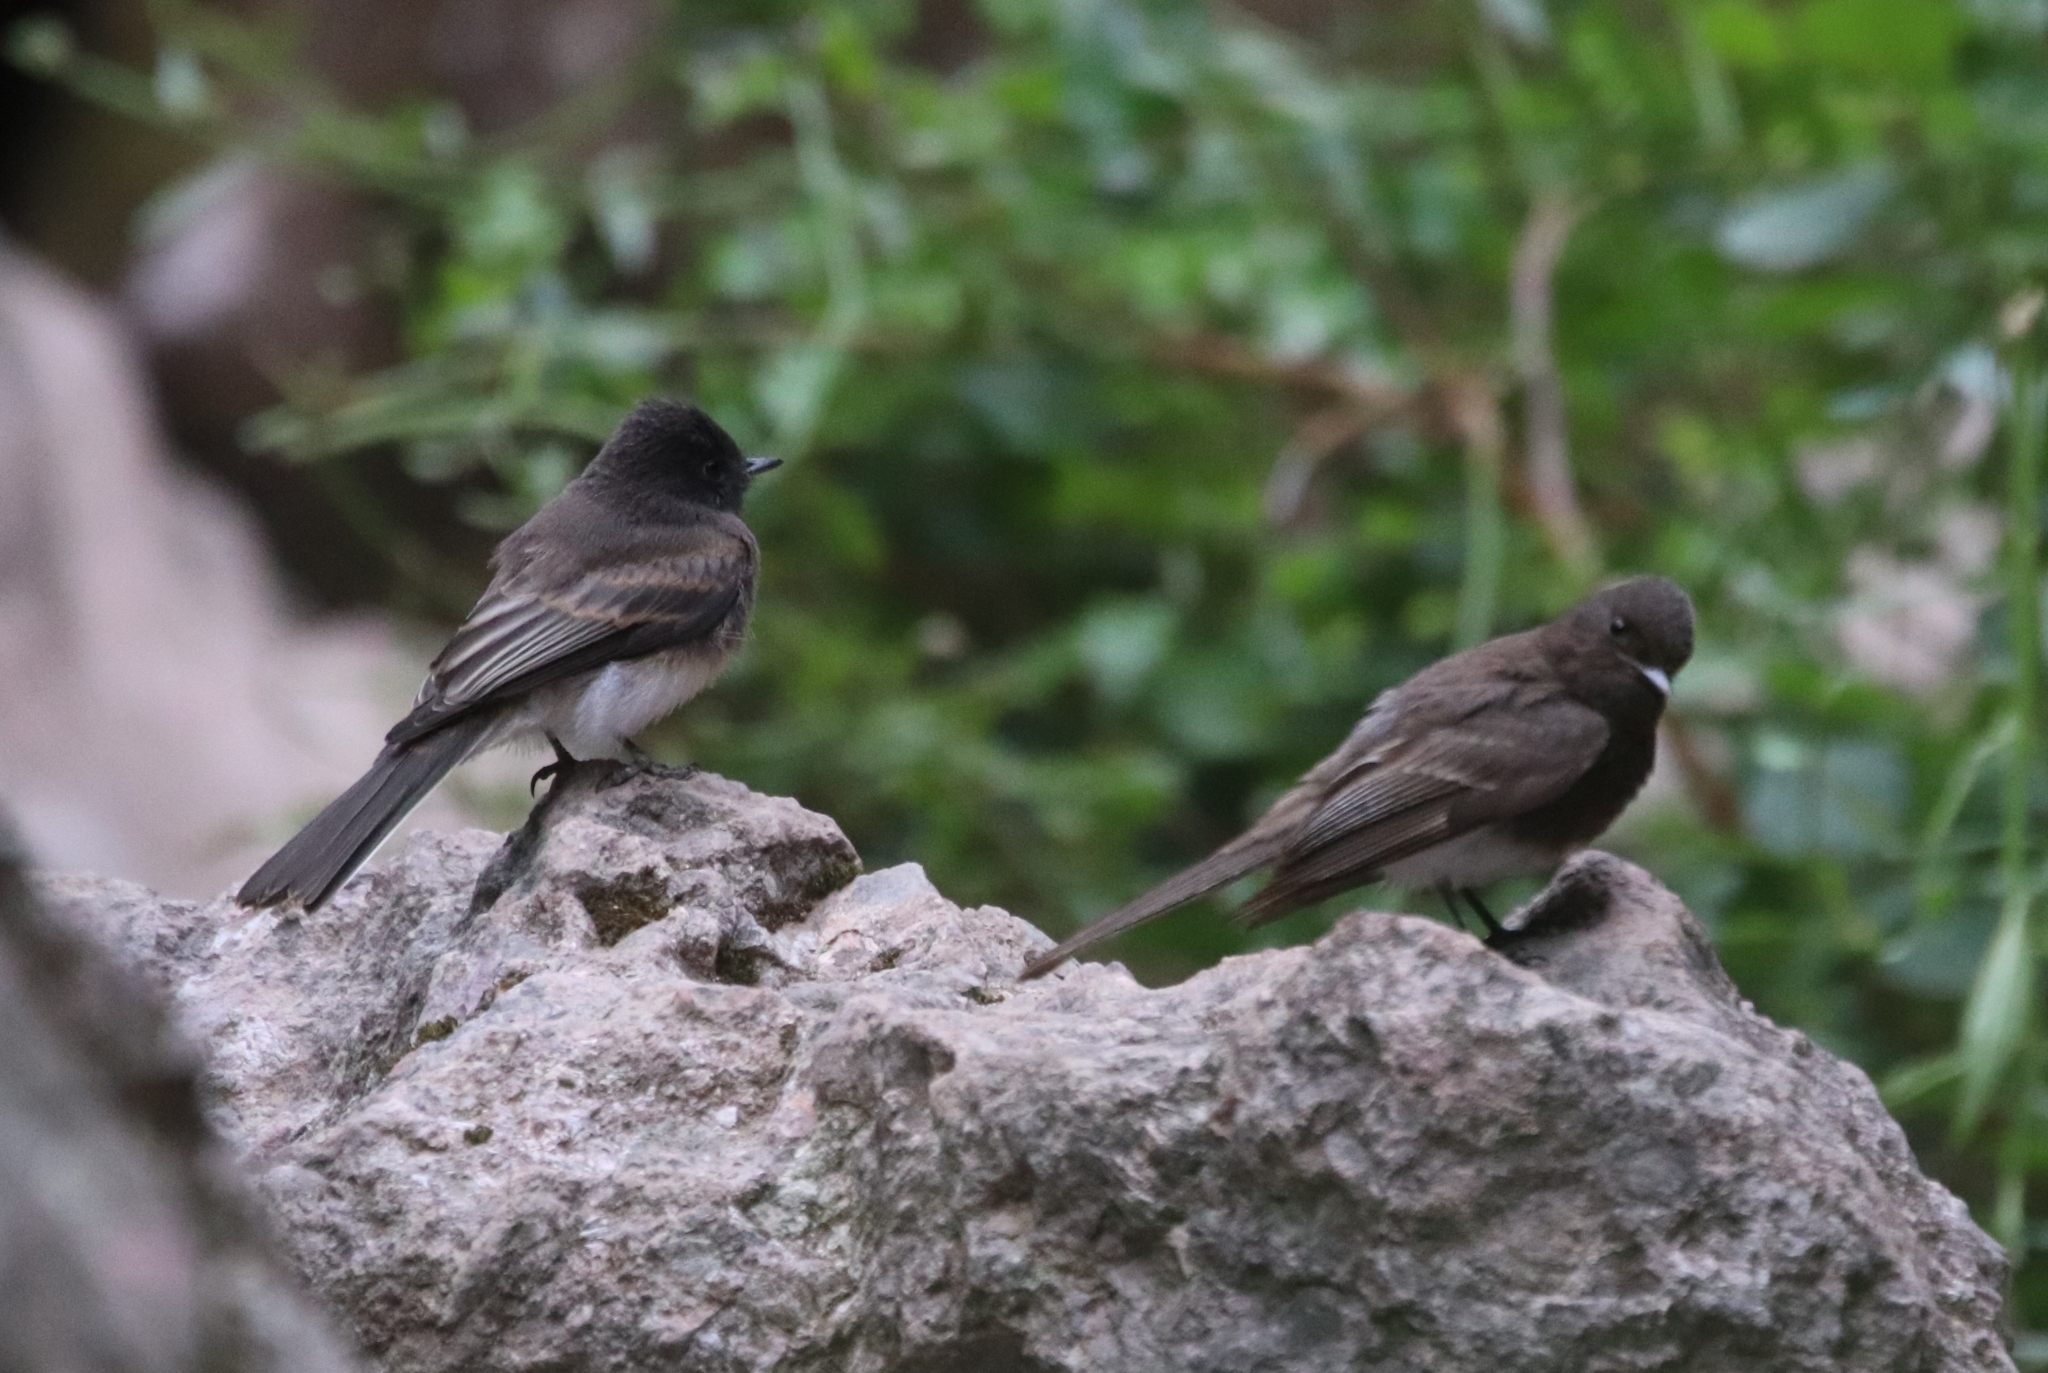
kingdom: Animalia
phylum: Chordata
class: Aves
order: Passeriformes
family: Tyrannidae
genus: Sayornis
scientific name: Sayornis nigricans
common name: Black phoebe
